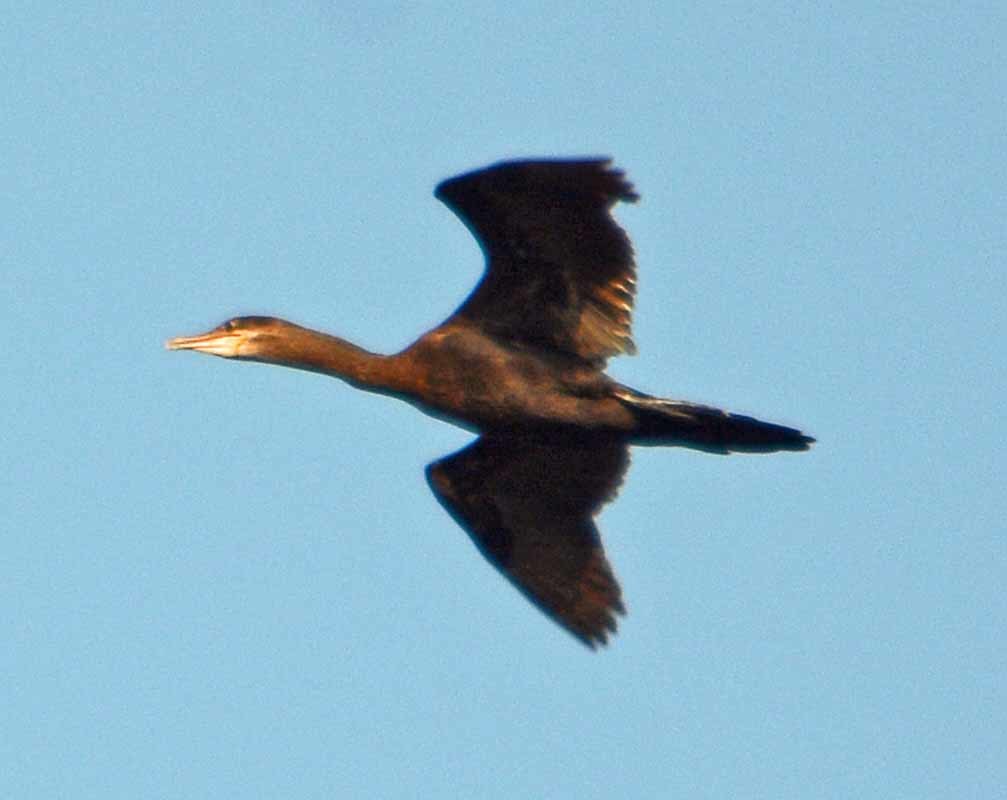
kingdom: Animalia
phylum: Chordata
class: Aves
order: Suliformes
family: Phalacrocoracidae
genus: Phalacrocorax
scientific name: Phalacrocorax brasilianus
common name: Neotropic cormorant
